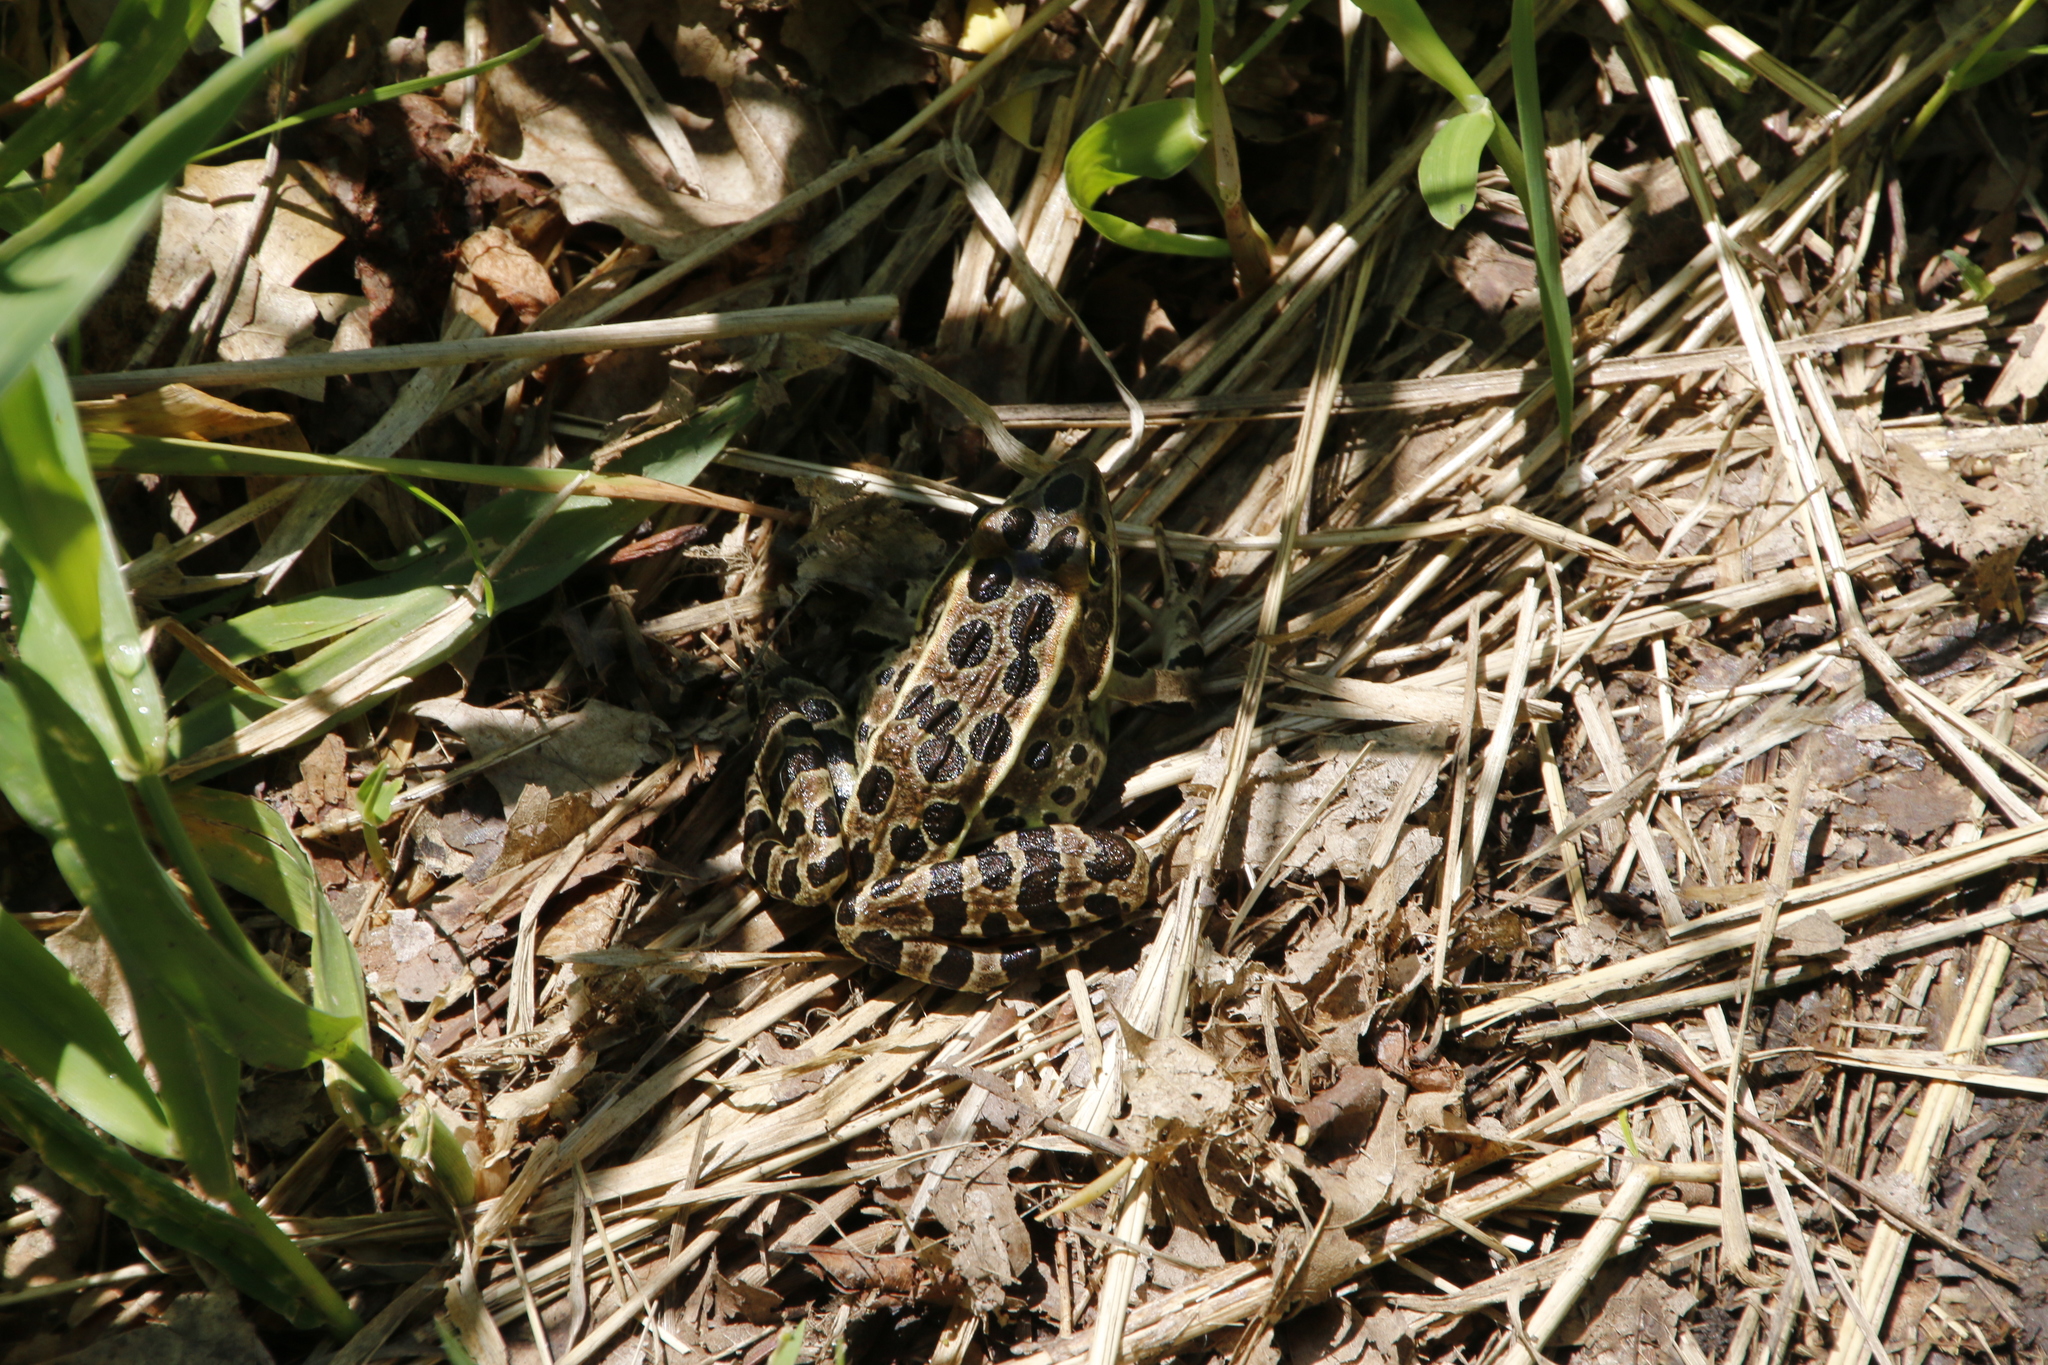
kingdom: Animalia
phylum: Chordata
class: Amphibia
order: Anura
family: Ranidae
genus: Lithobates
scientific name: Lithobates pipiens
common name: Northern leopard frog
